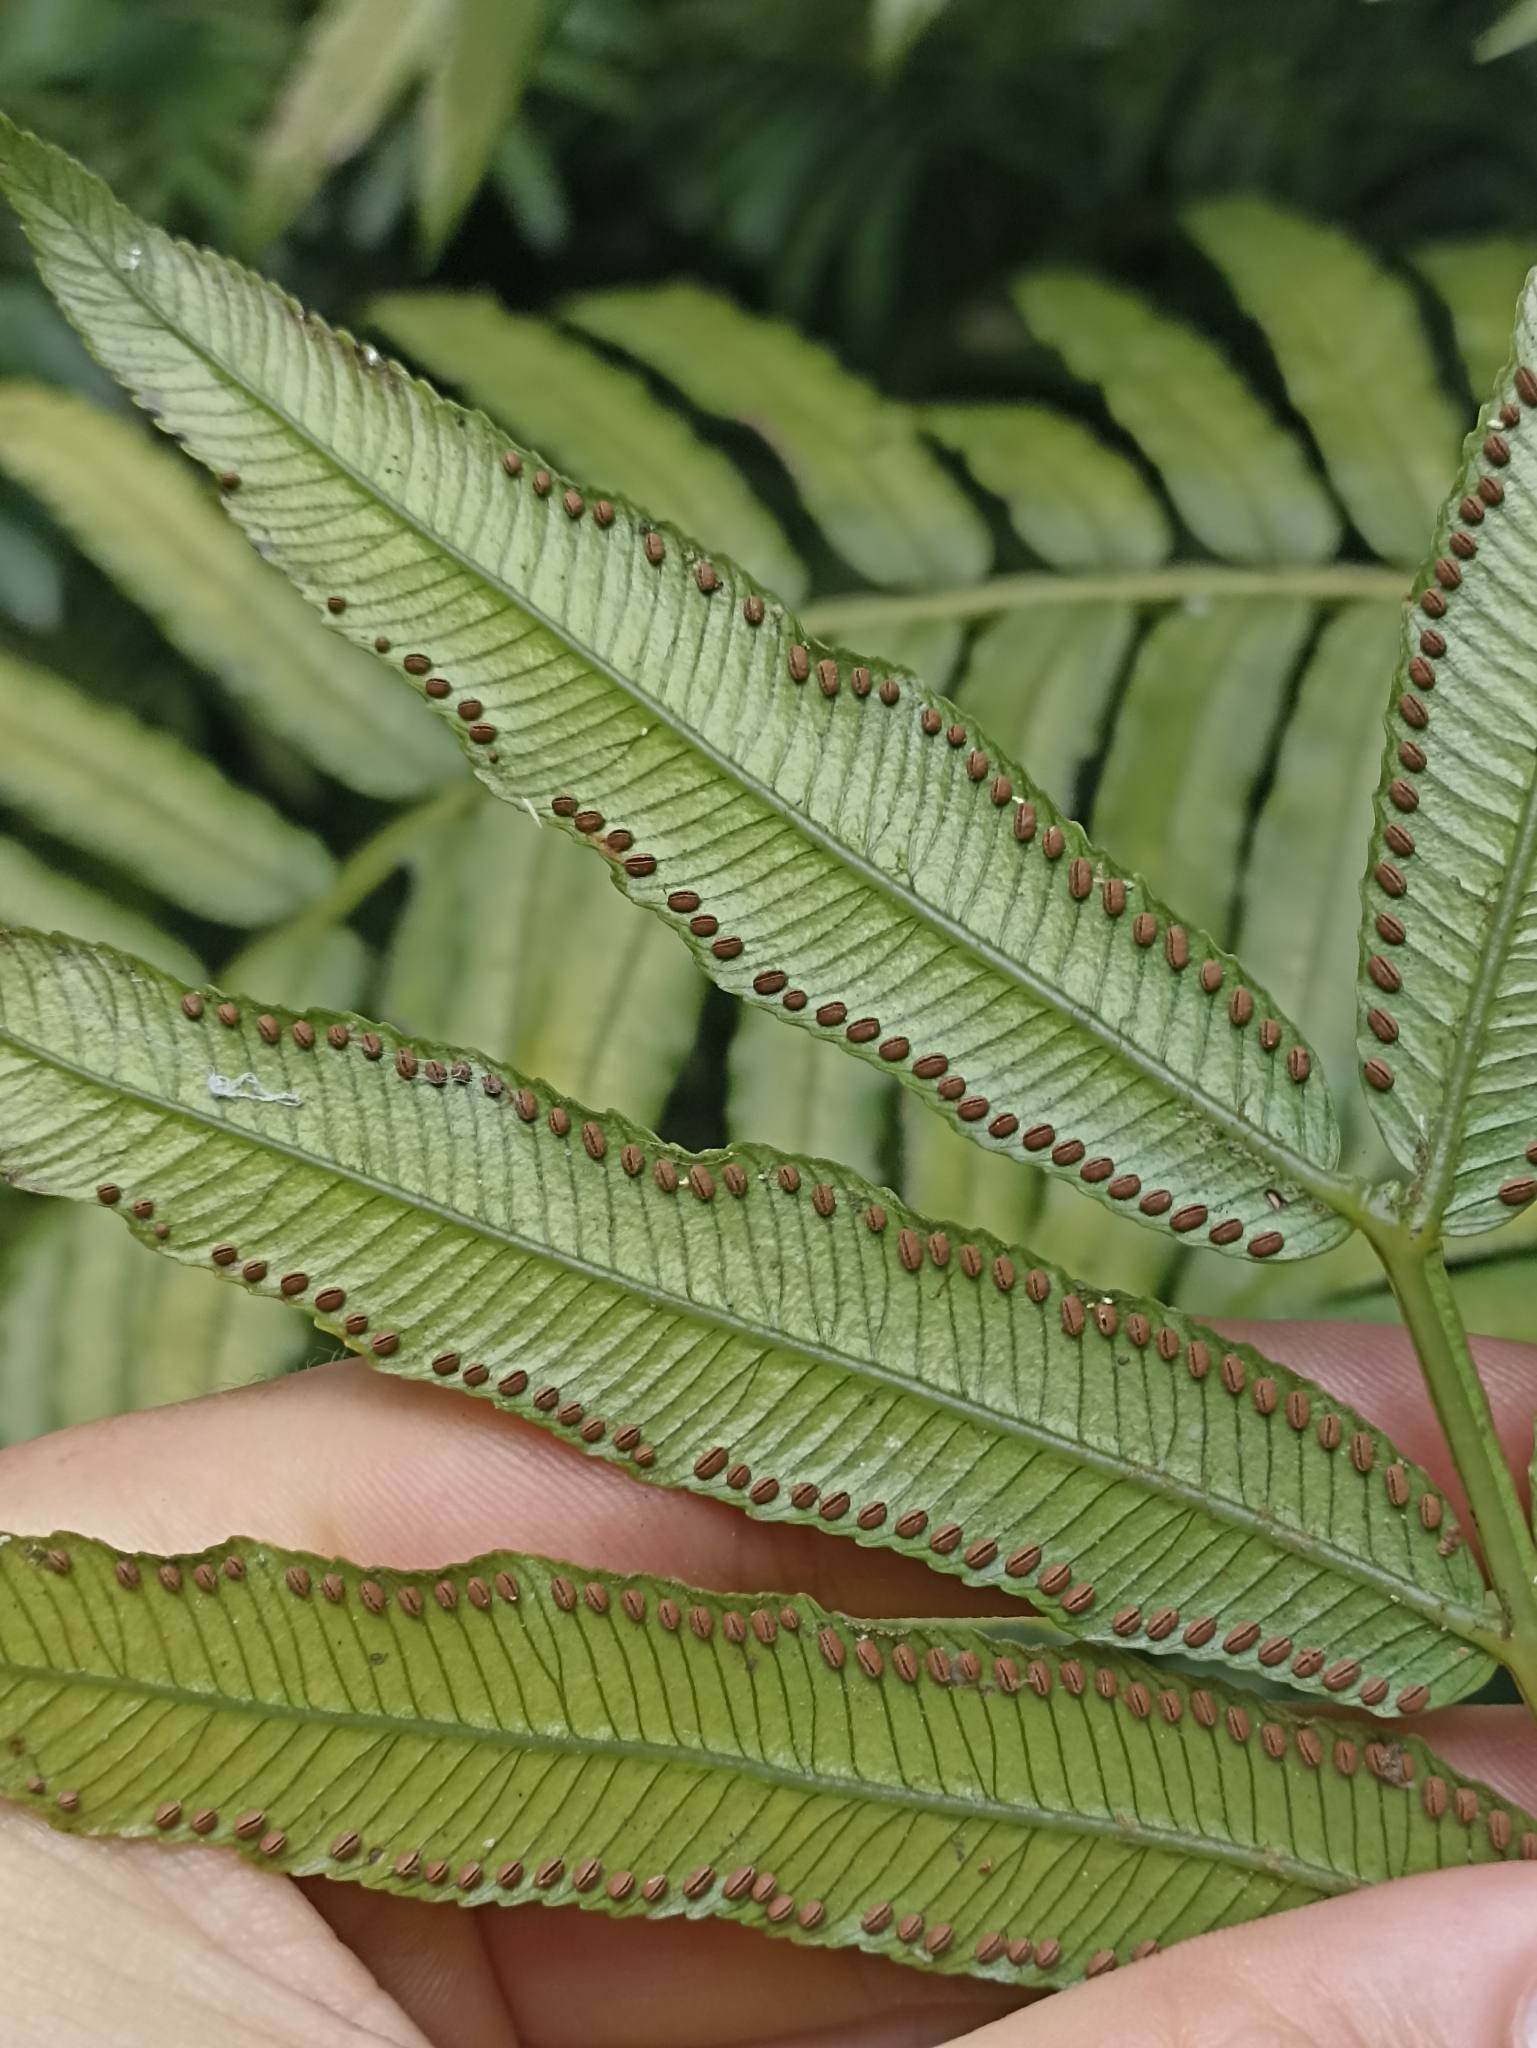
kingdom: Plantae
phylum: Tracheophyta
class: Polypodiopsida
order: Marattiales
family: Marattiaceae
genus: Ptisana
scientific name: Ptisana salicina
